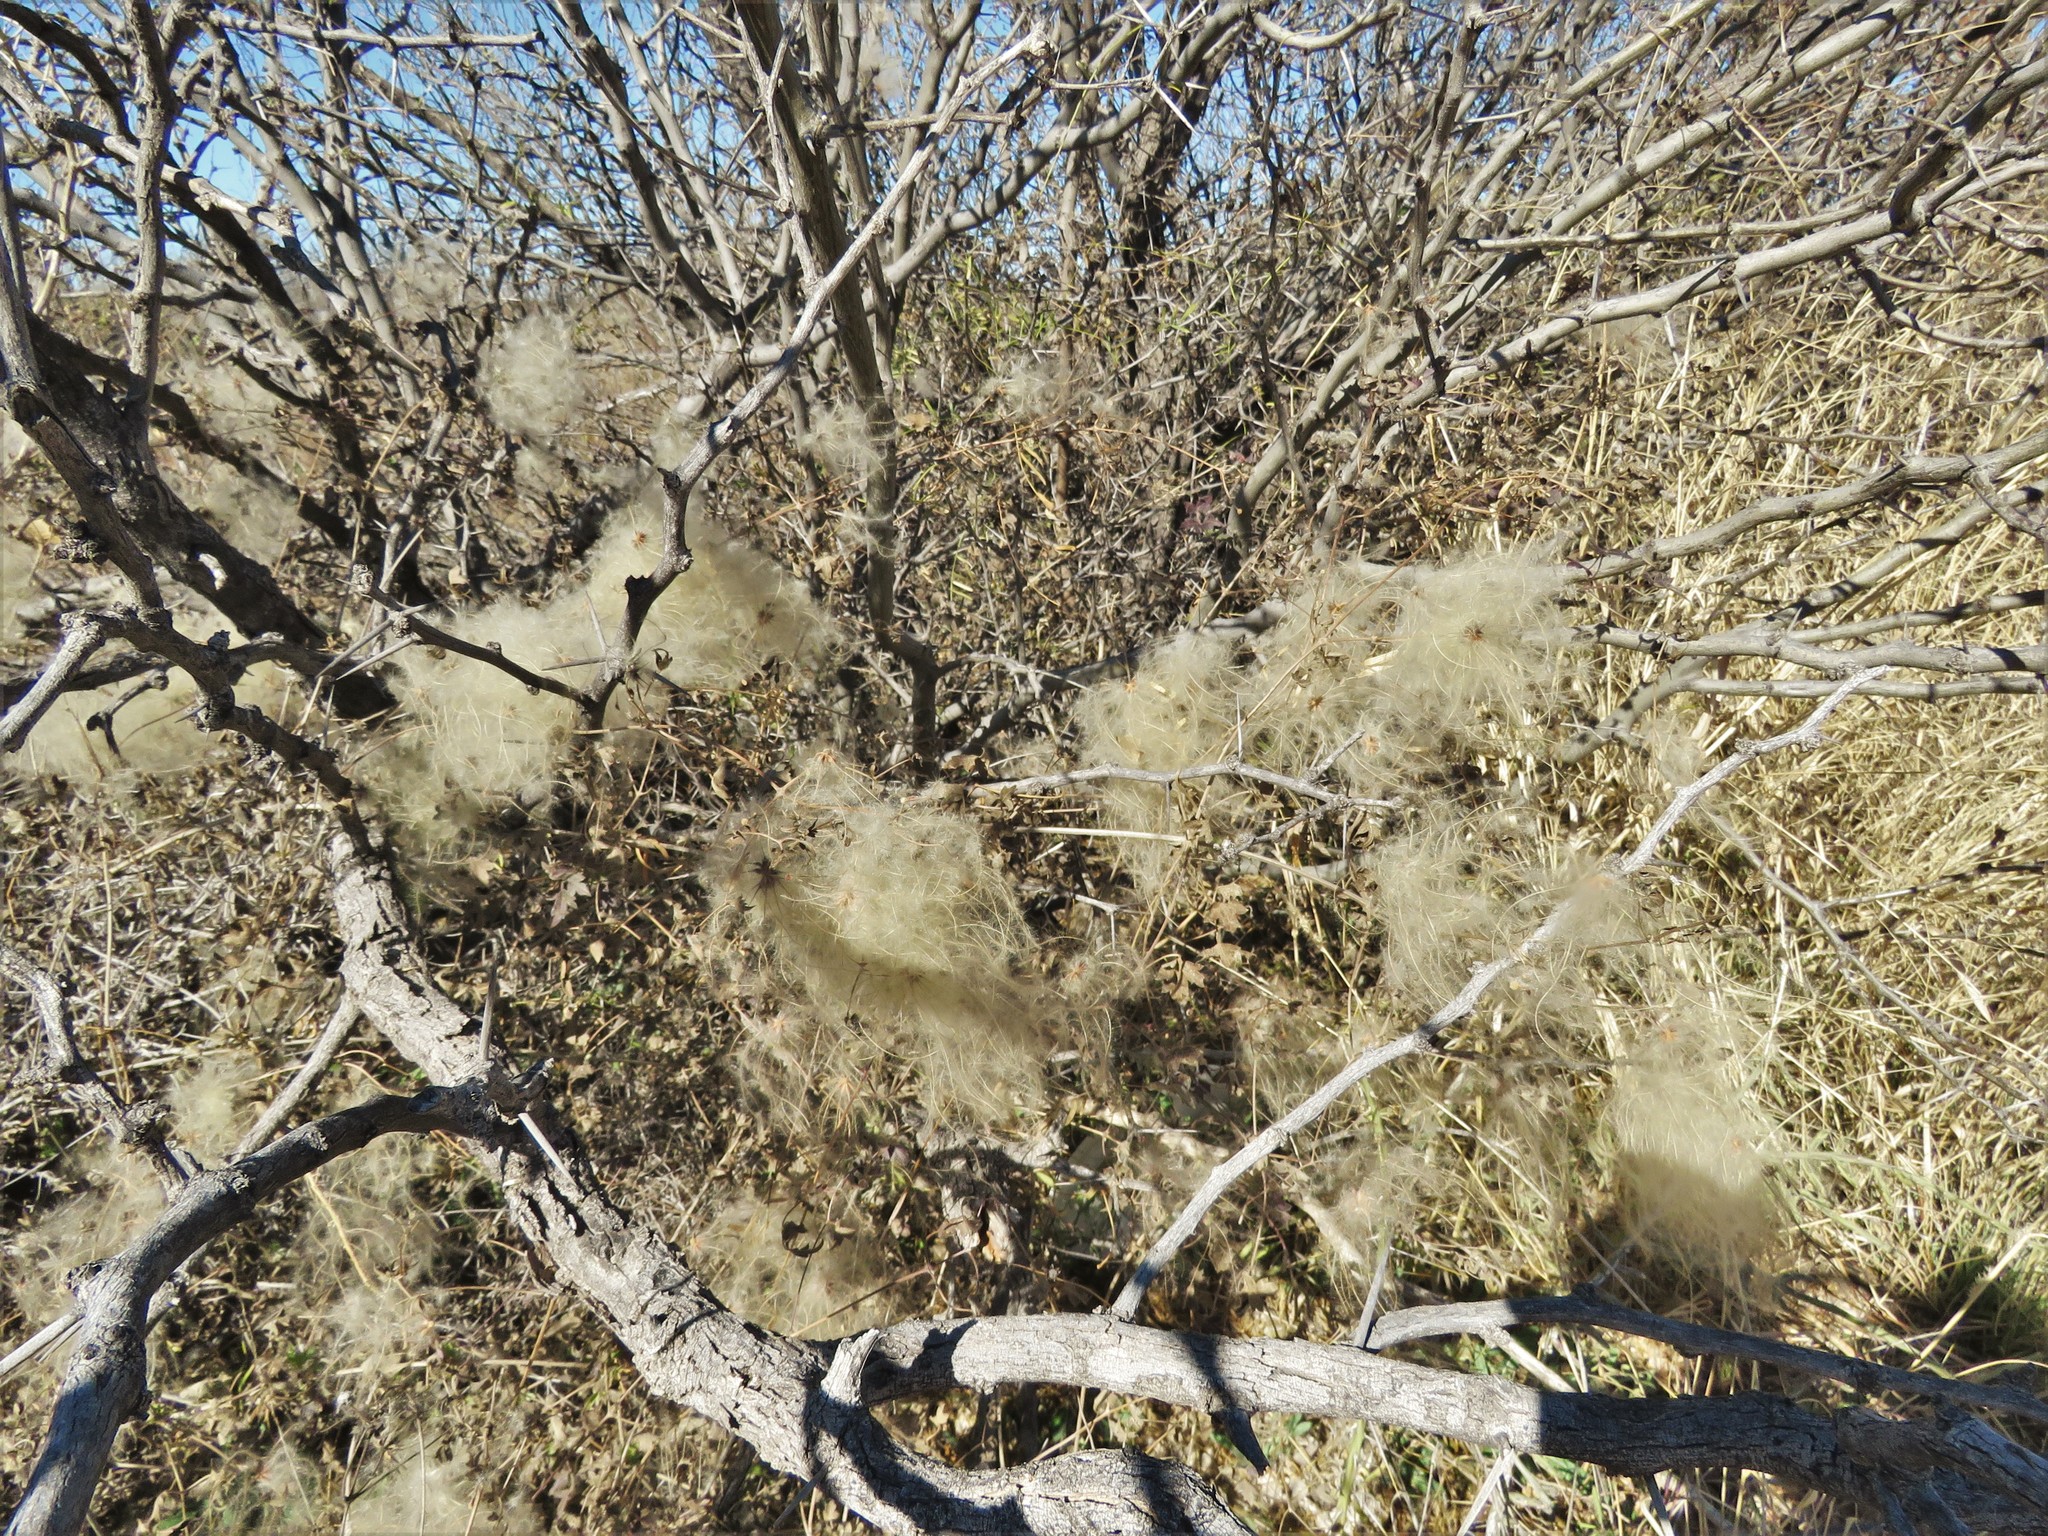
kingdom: Plantae
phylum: Tracheophyta
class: Magnoliopsida
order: Ranunculales
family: Ranunculaceae
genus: Clematis
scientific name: Clematis drummondii
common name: Texas virgin's bower
